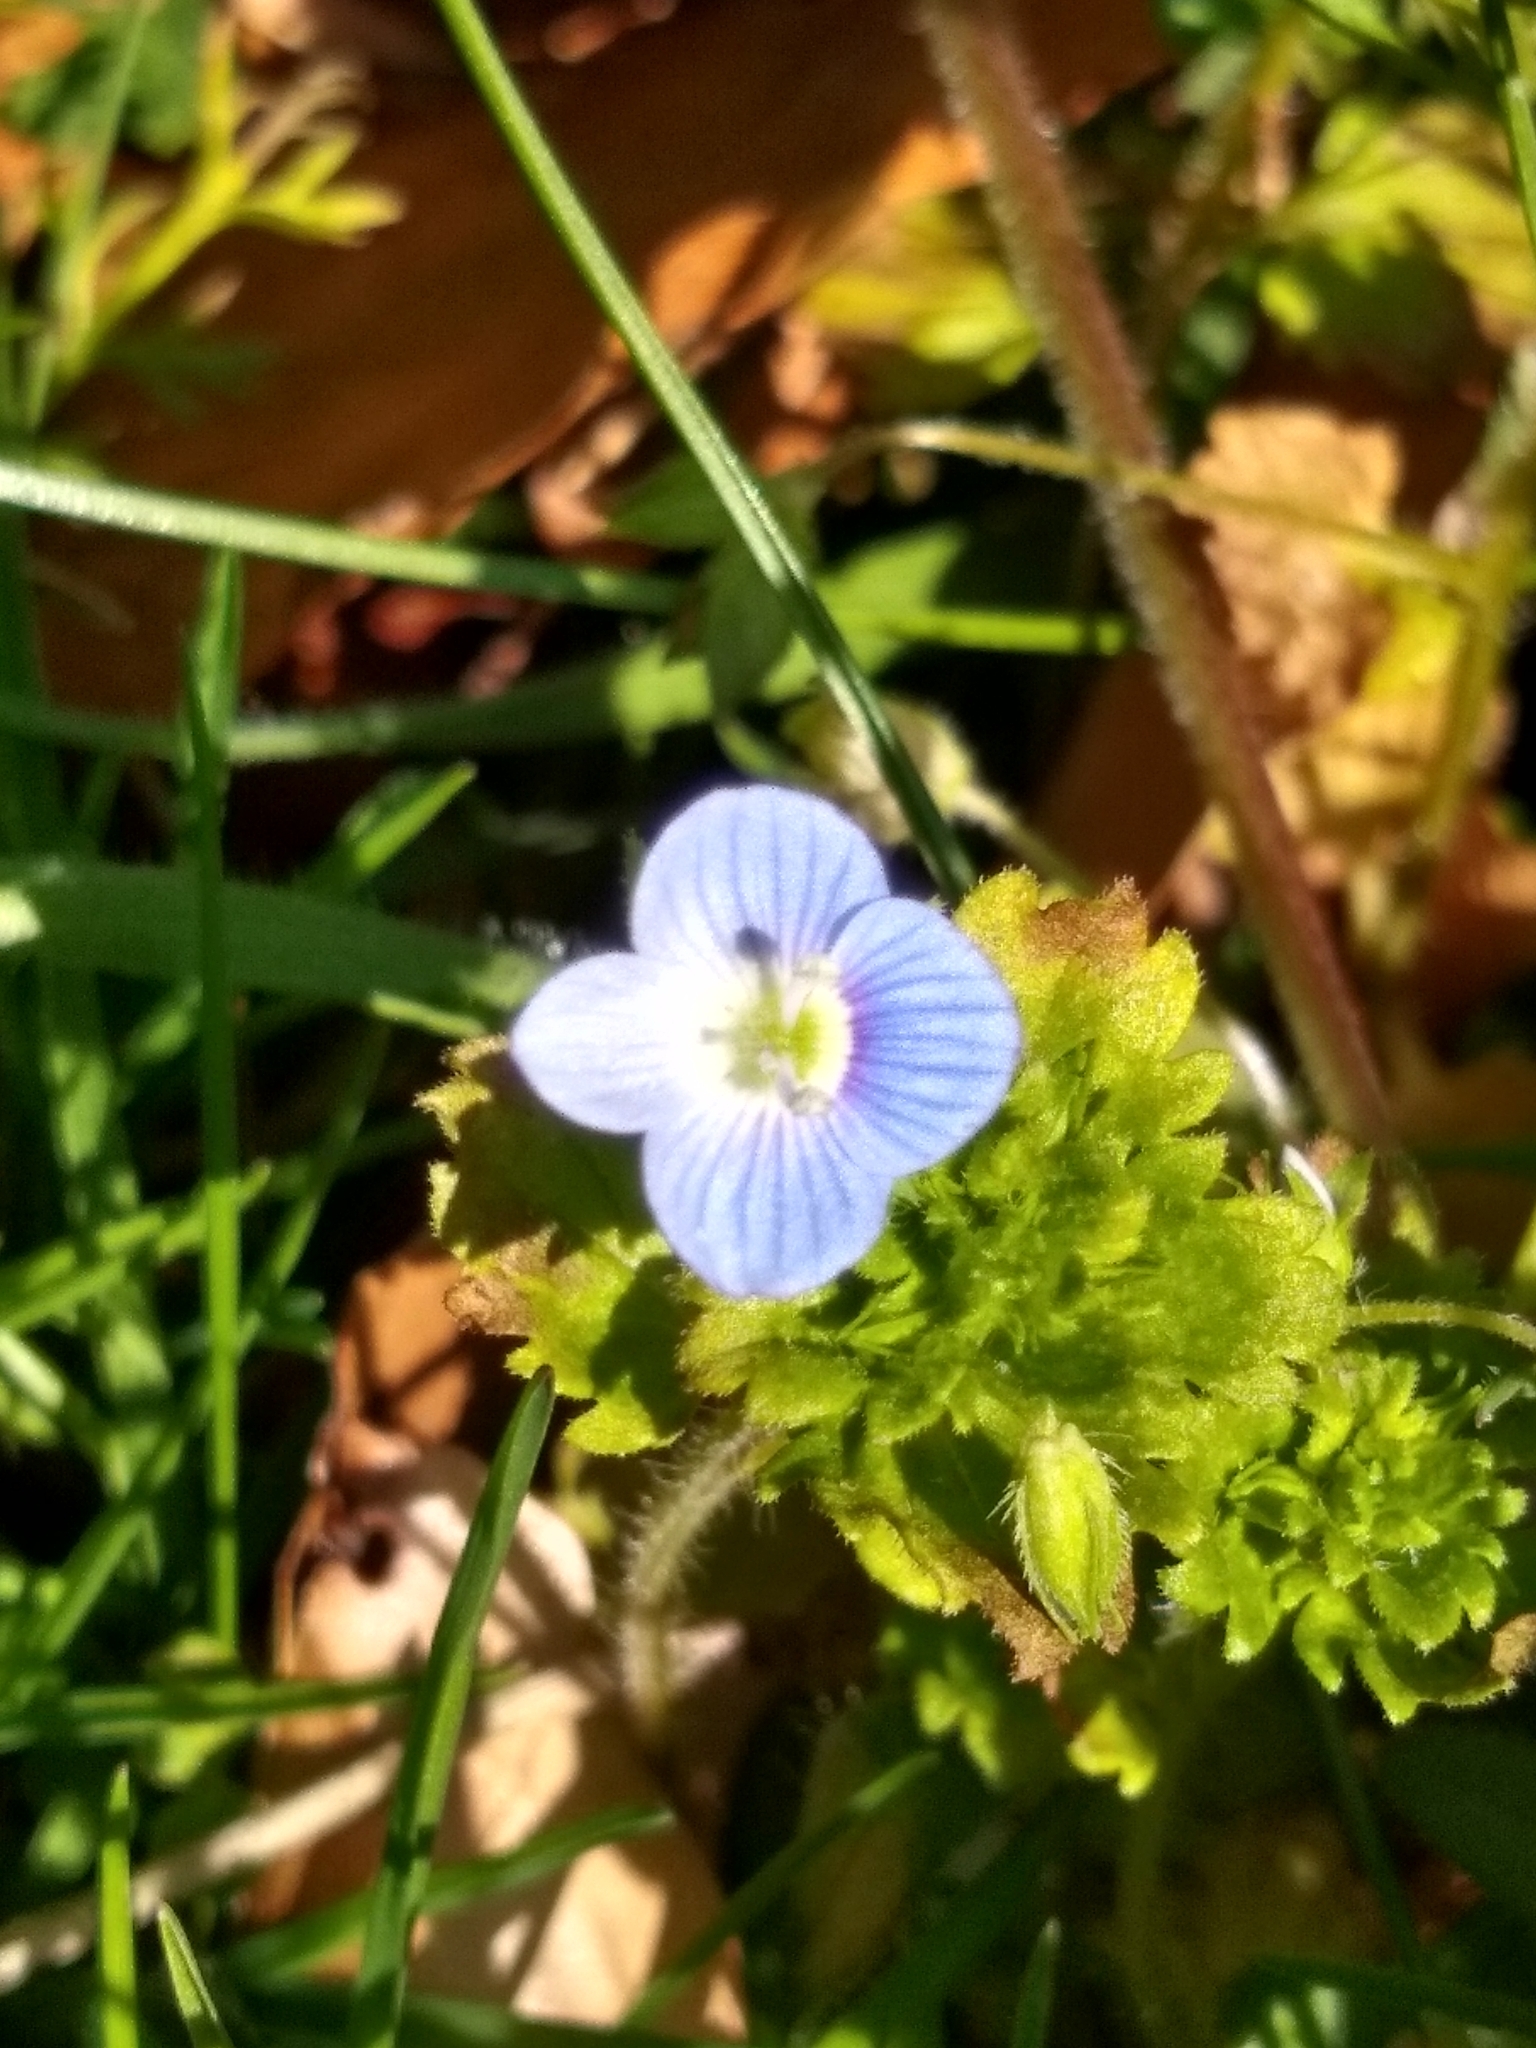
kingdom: Plantae
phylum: Tracheophyta
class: Magnoliopsida
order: Lamiales
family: Plantaginaceae
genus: Veronica
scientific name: Veronica persica
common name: Common field-speedwell
